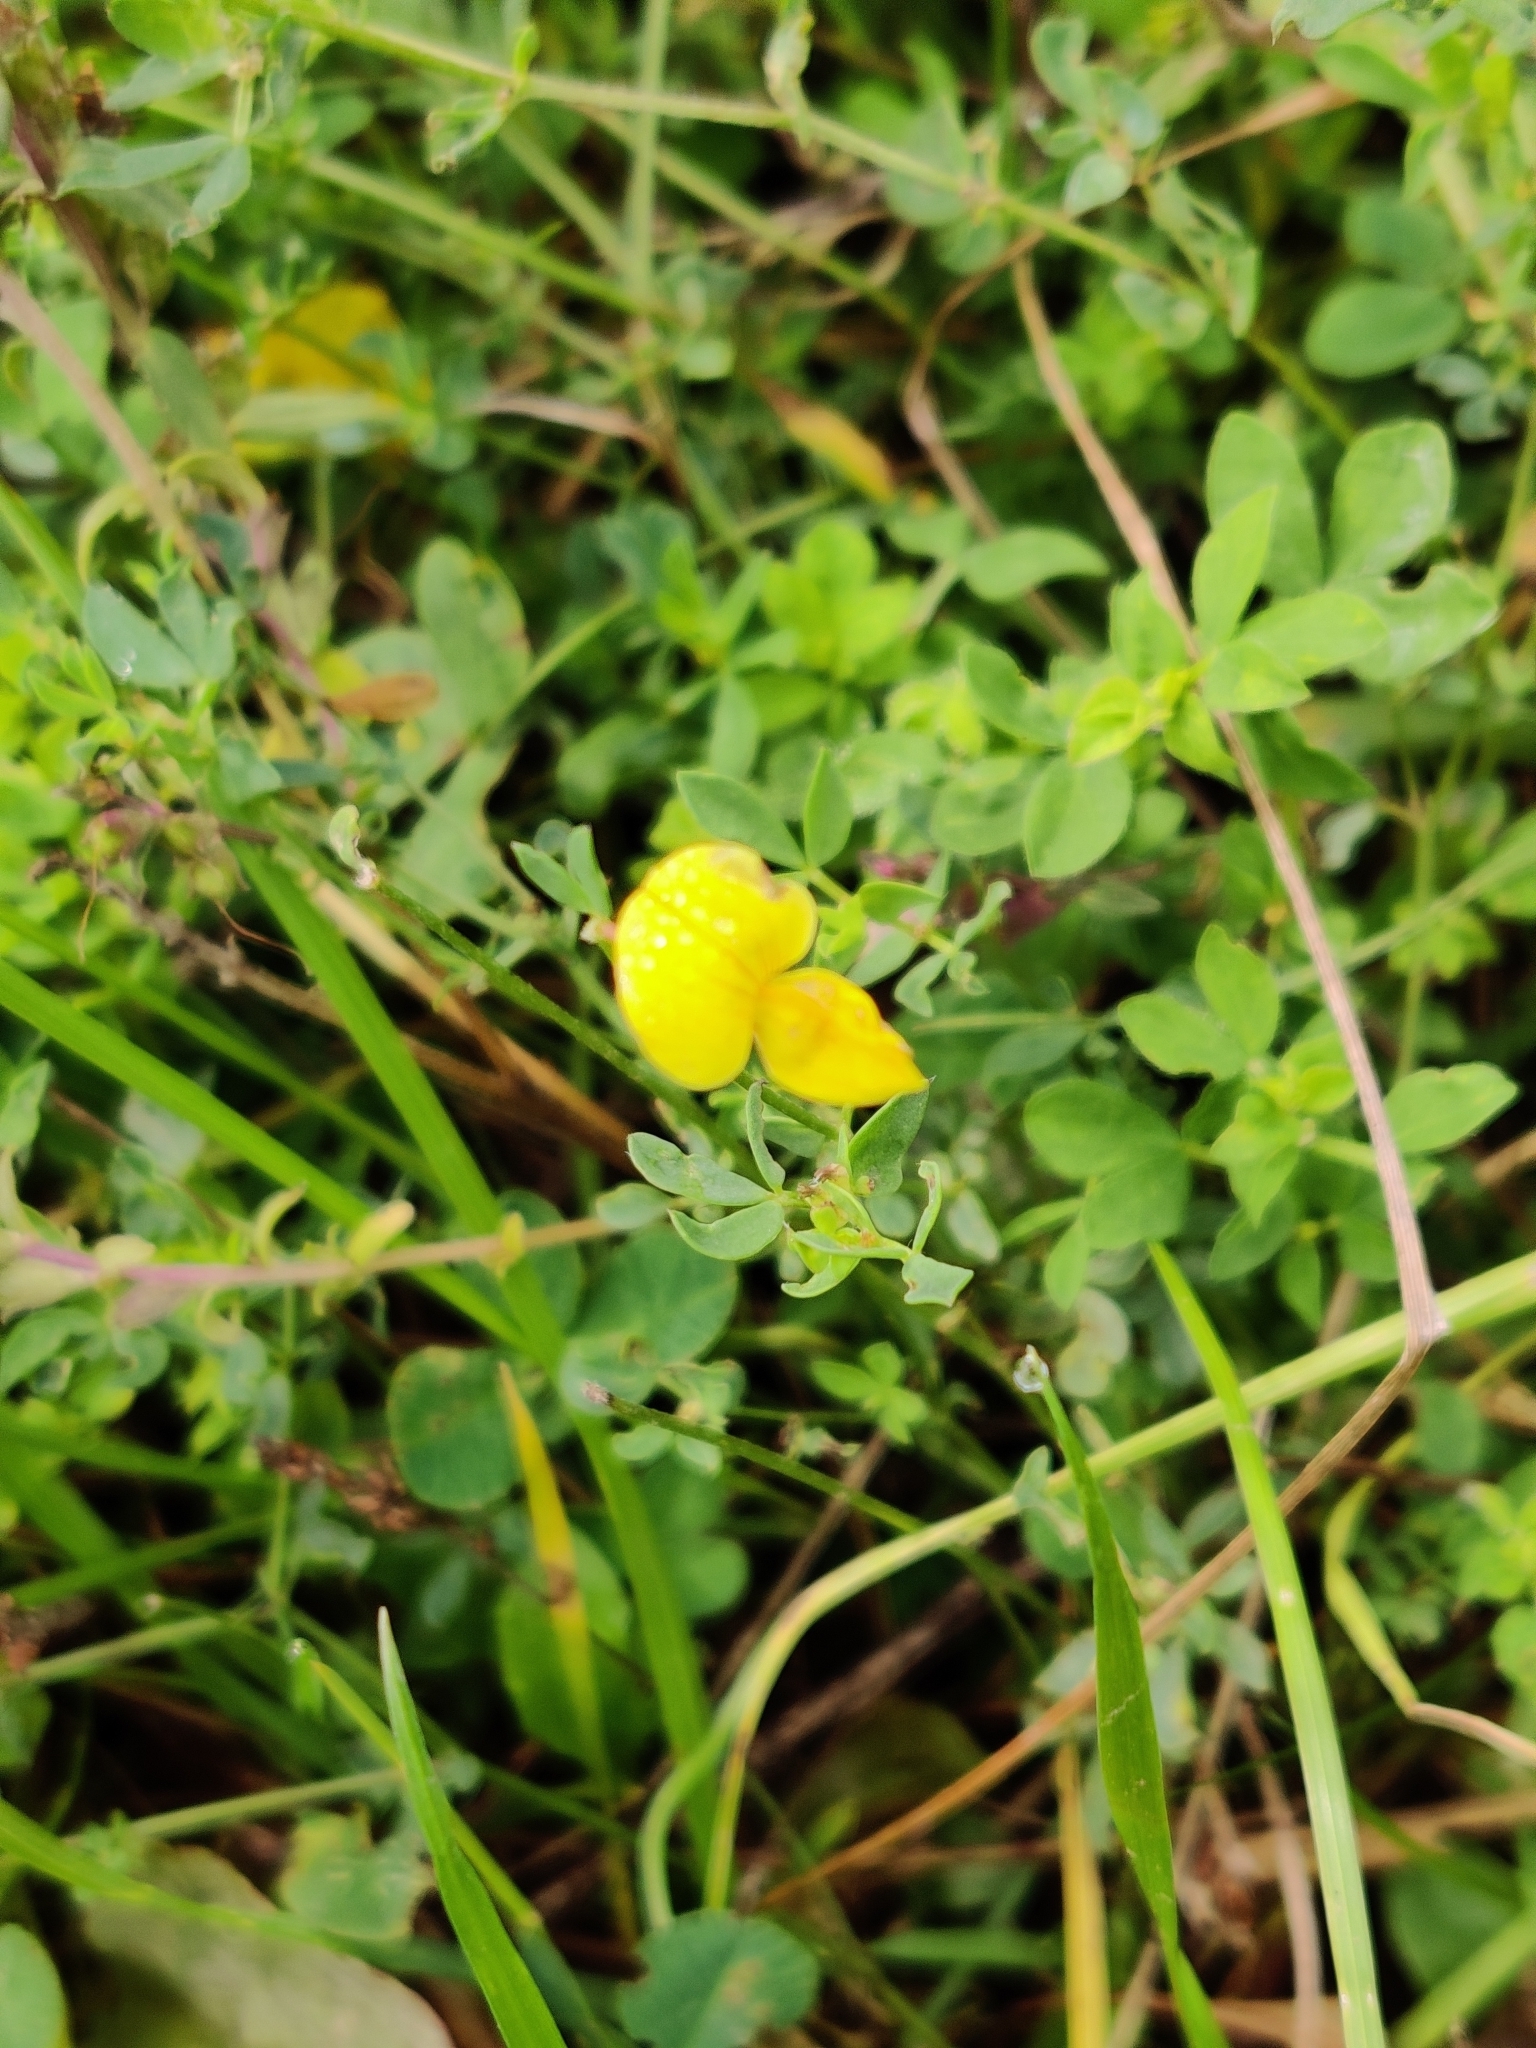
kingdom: Plantae
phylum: Tracheophyta
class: Magnoliopsida
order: Fabales
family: Fabaceae
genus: Lotus
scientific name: Lotus corniculatus
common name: Common bird's-foot-trefoil
